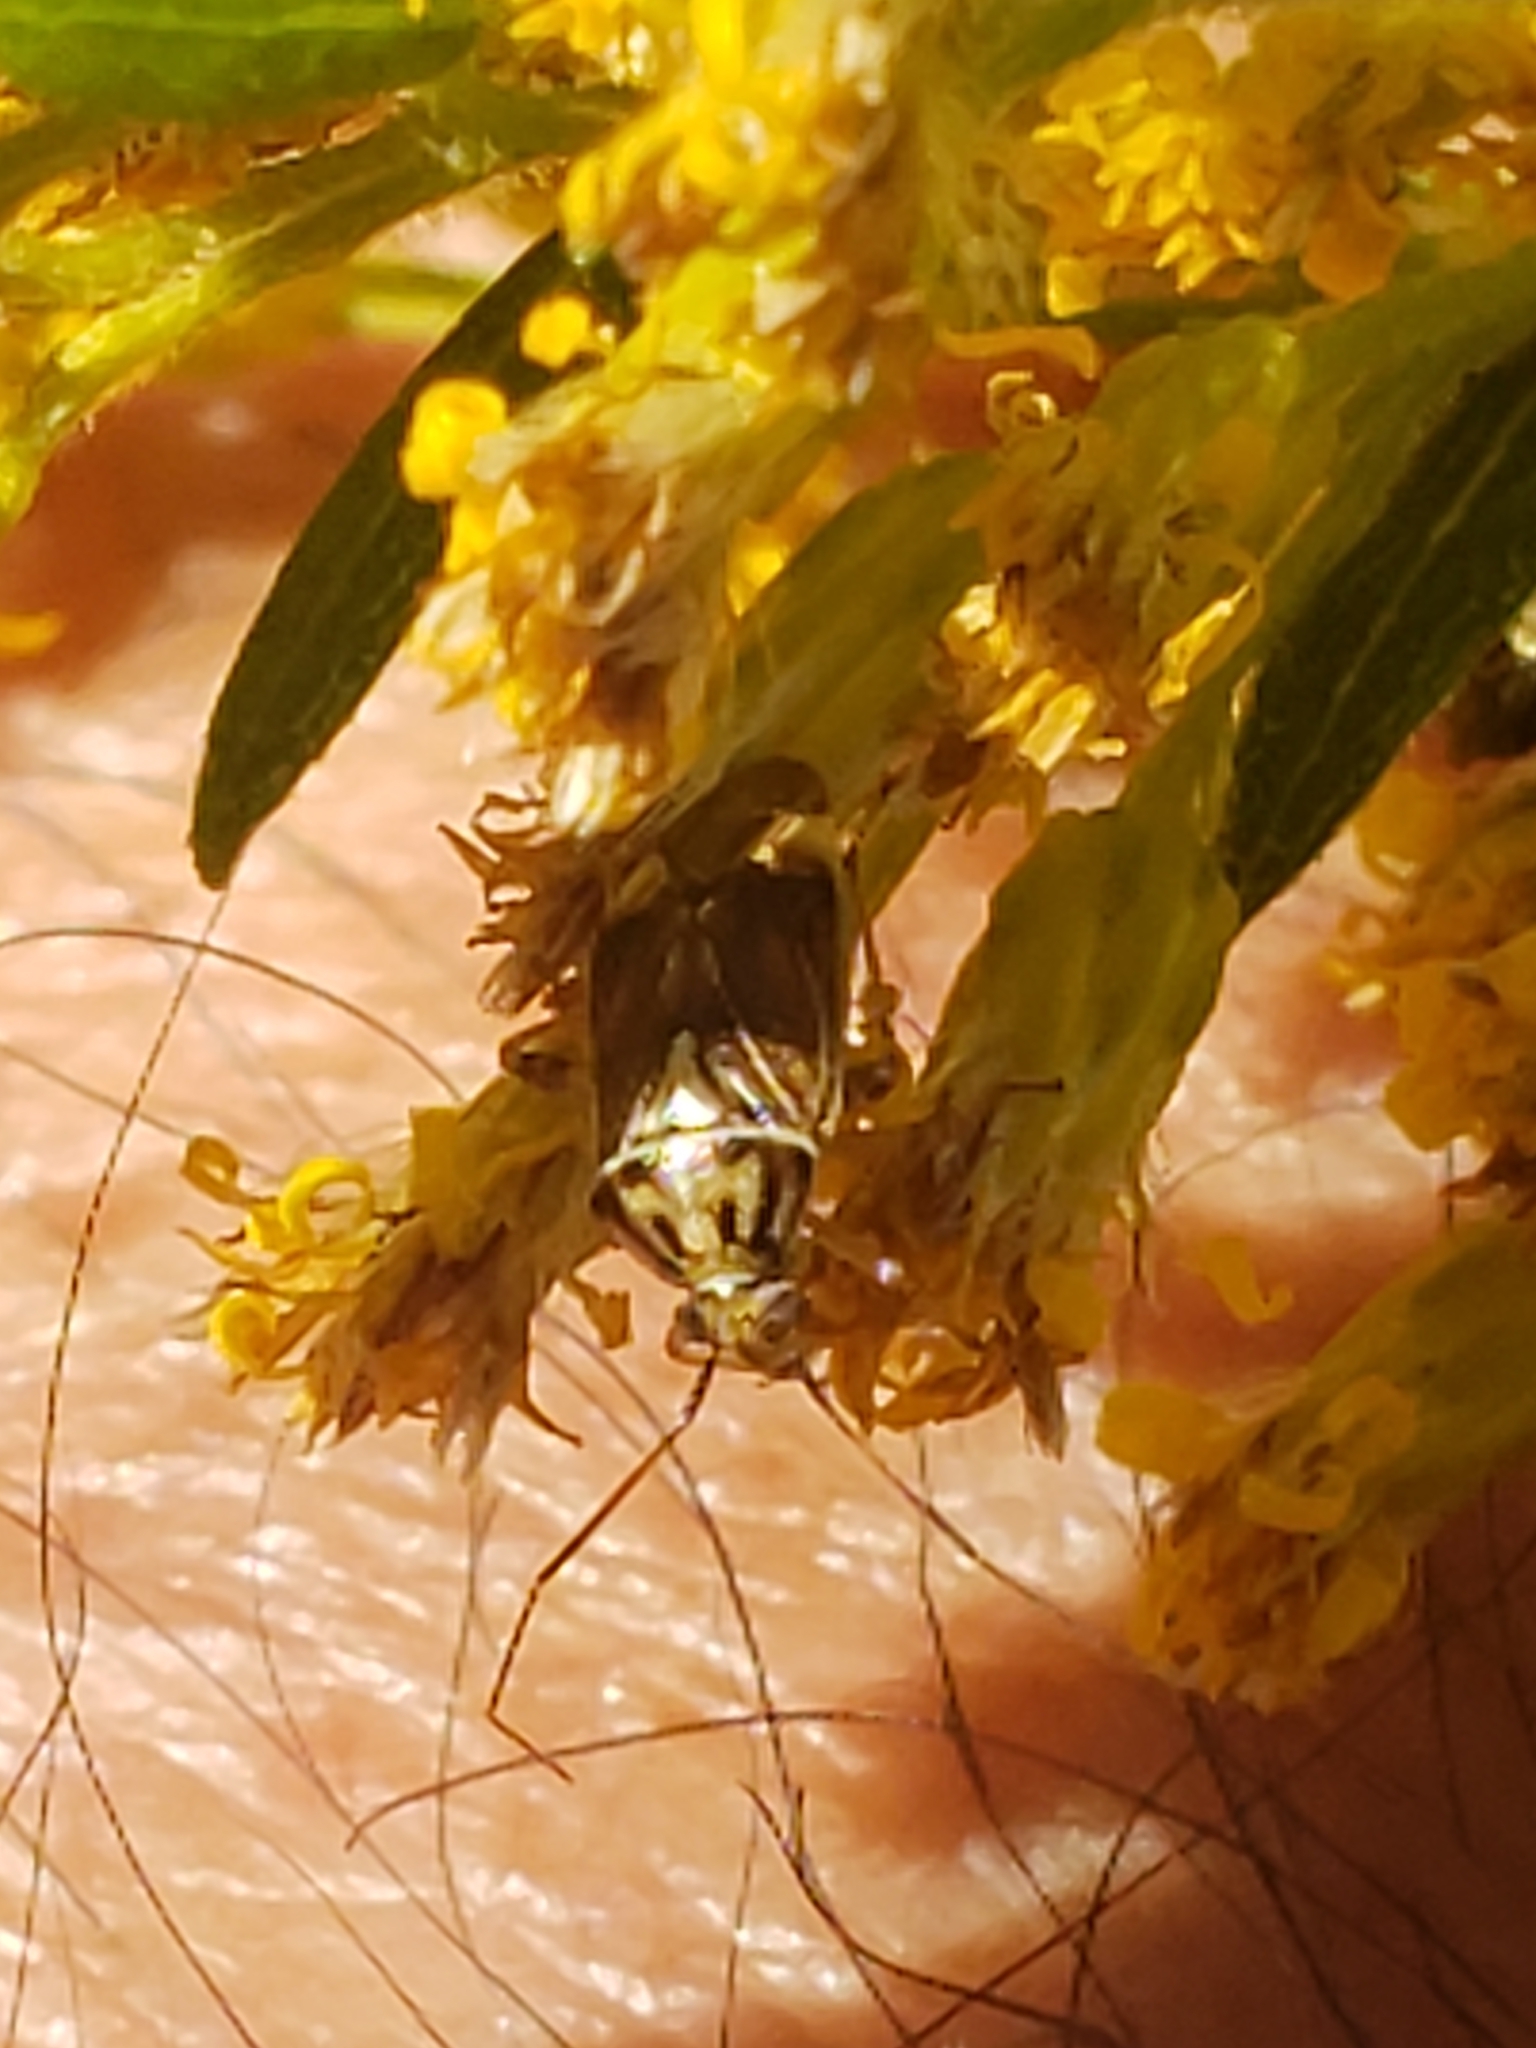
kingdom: Animalia
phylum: Arthropoda
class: Insecta
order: Hemiptera
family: Miridae
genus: Lygus
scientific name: Lygus lineolaris
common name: North american tarnished plant bug
